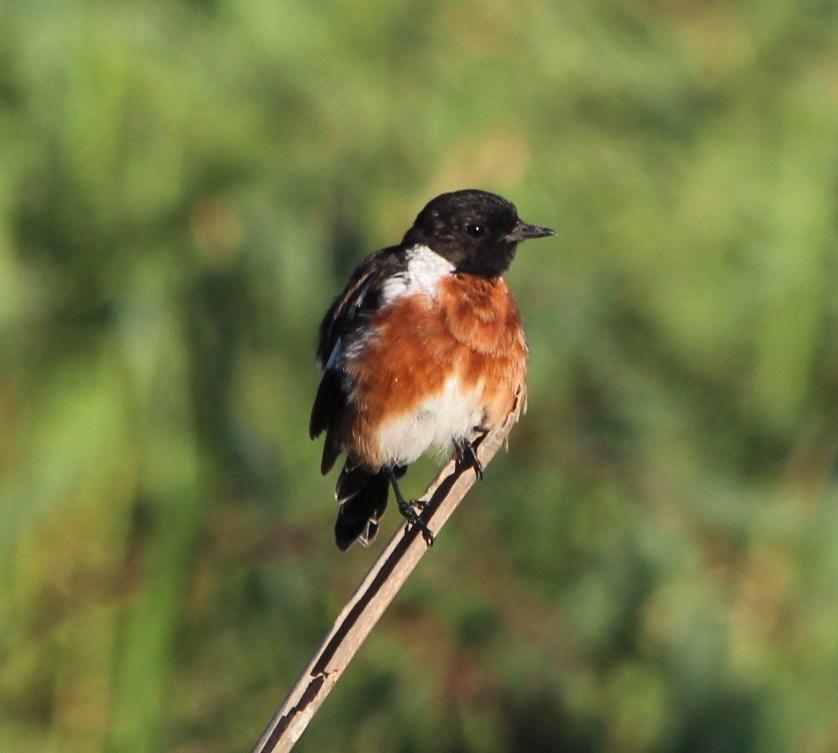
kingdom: Animalia
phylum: Chordata
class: Aves
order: Passeriformes
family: Muscicapidae
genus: Saxicola
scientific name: Saxicola torquatus
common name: African stonechat
